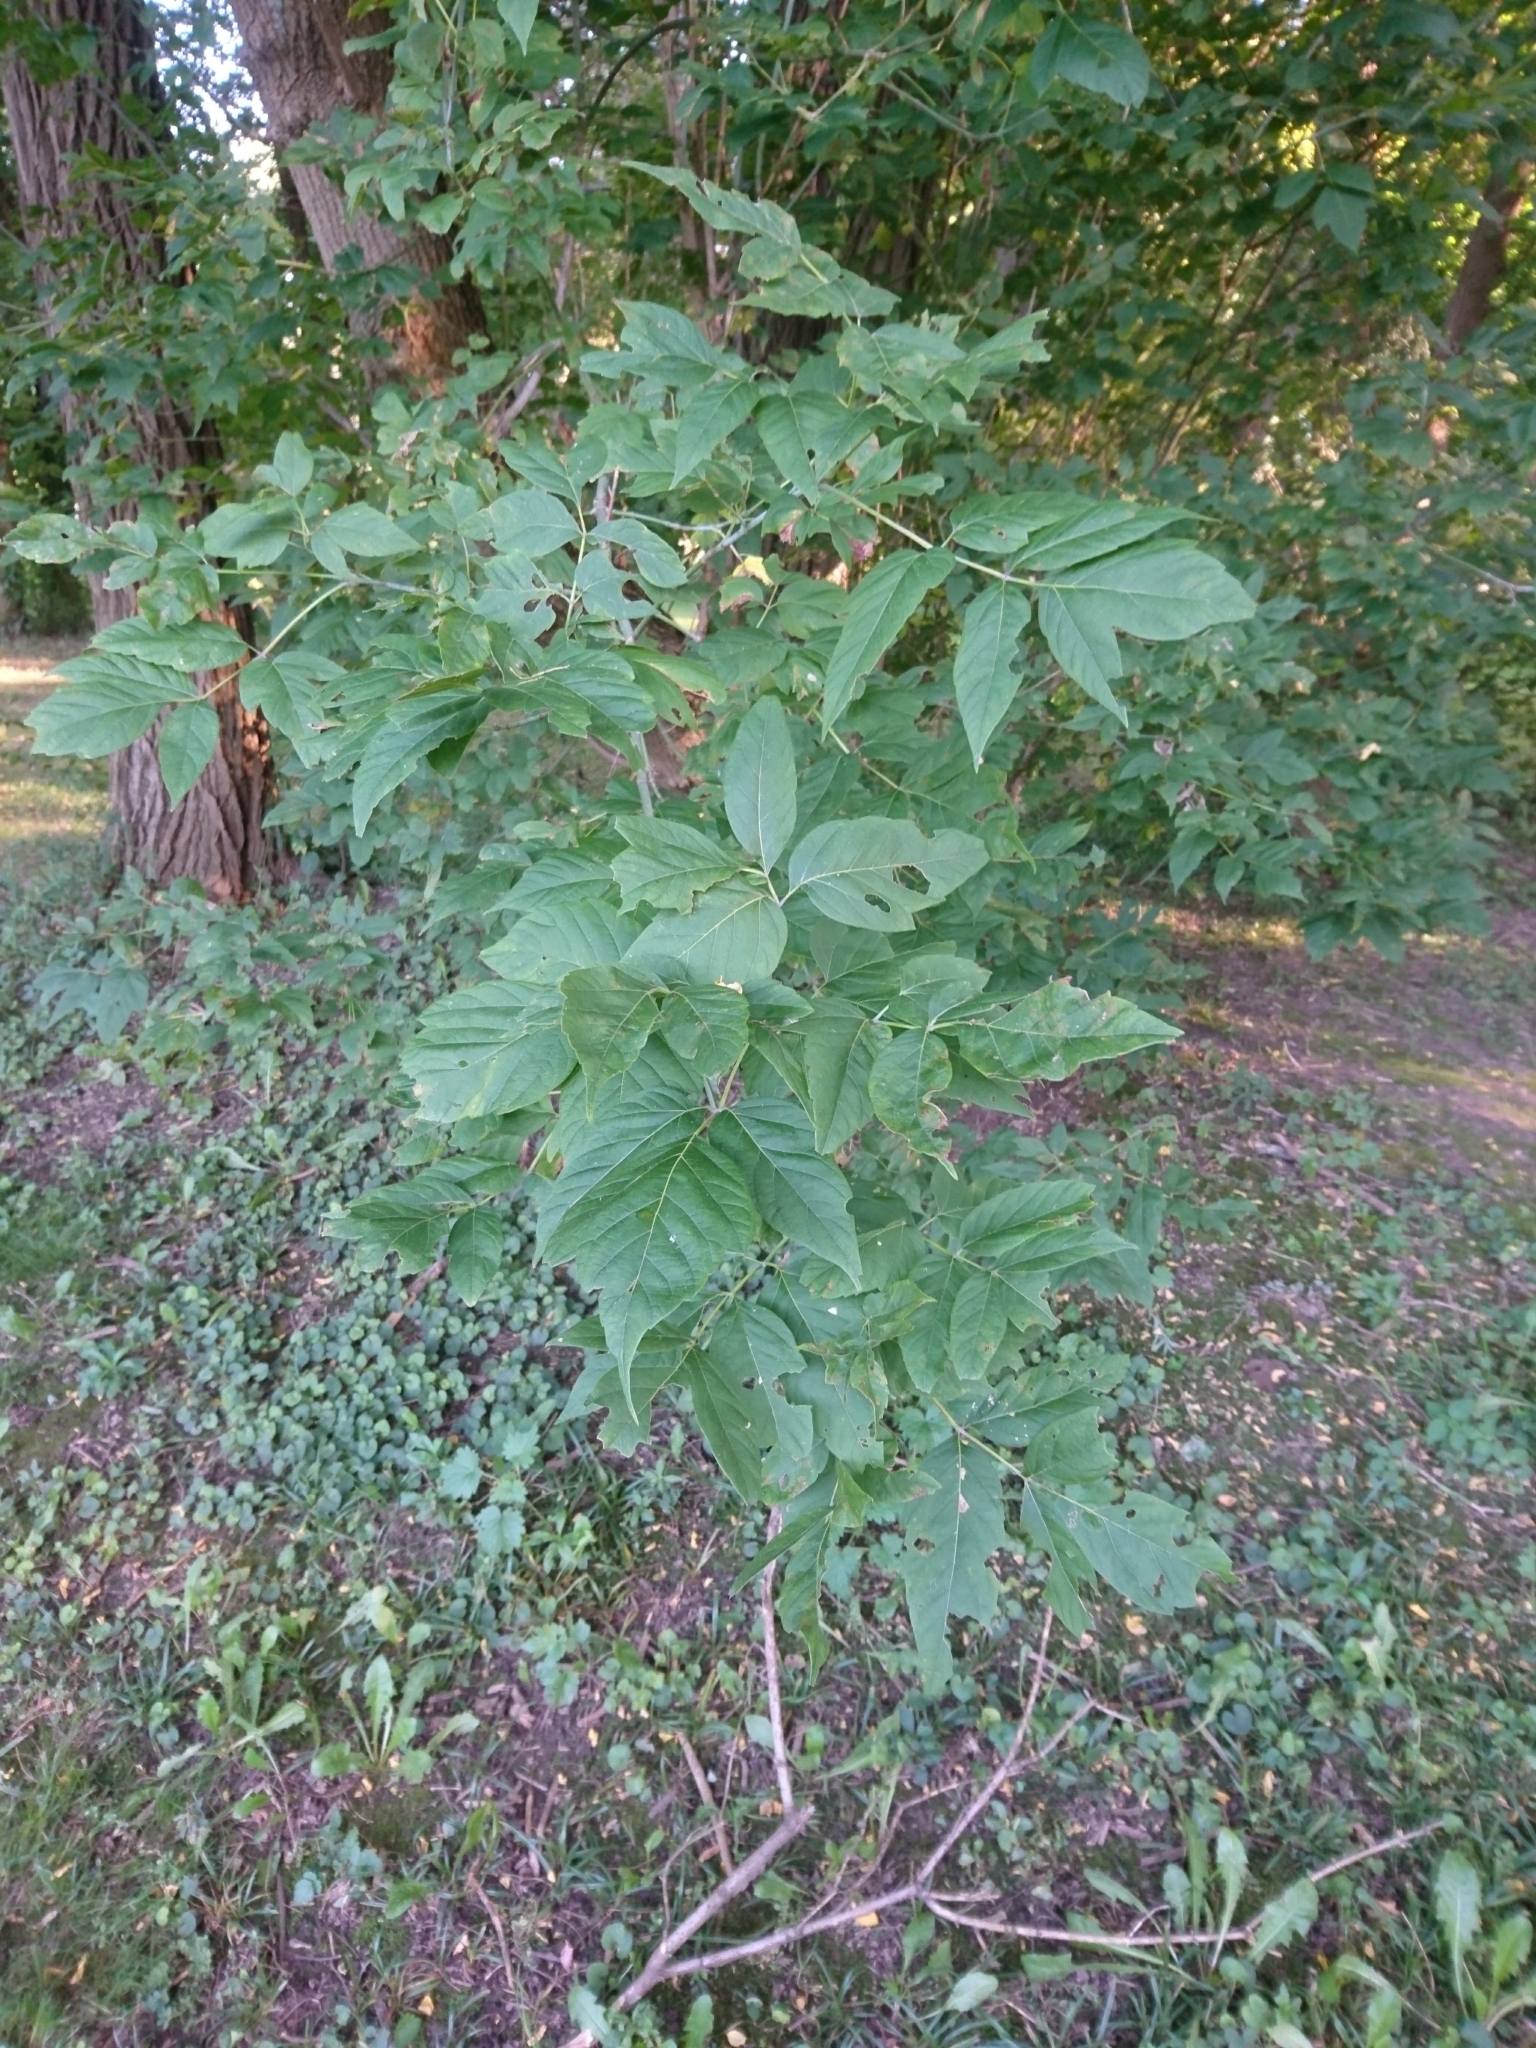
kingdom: Plantae
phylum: Tracheophyta
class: Magnoliopsida
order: Sapindales
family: Sapindaceae
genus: Acer
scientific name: Acer negundo
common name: Ashleaf maple
